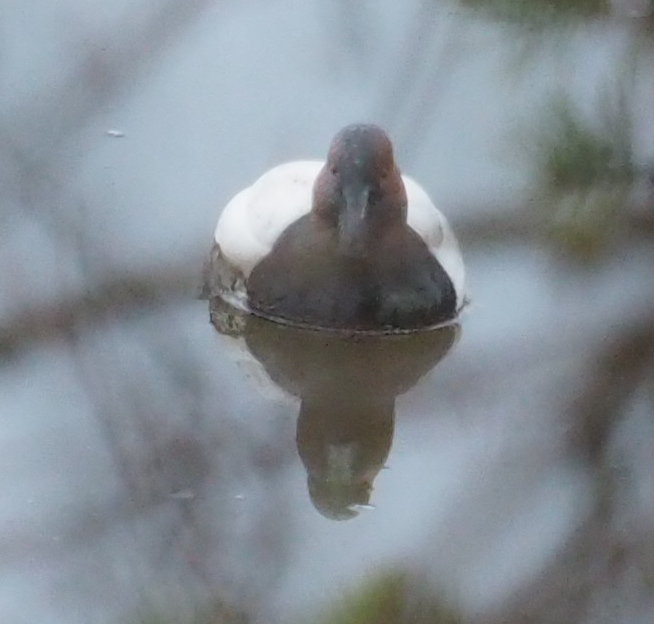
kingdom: Animalia
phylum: Chordata
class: Aves
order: Anseriformes
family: Anatidae
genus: Aythya
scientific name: Aythya valisineria
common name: Canvasback
